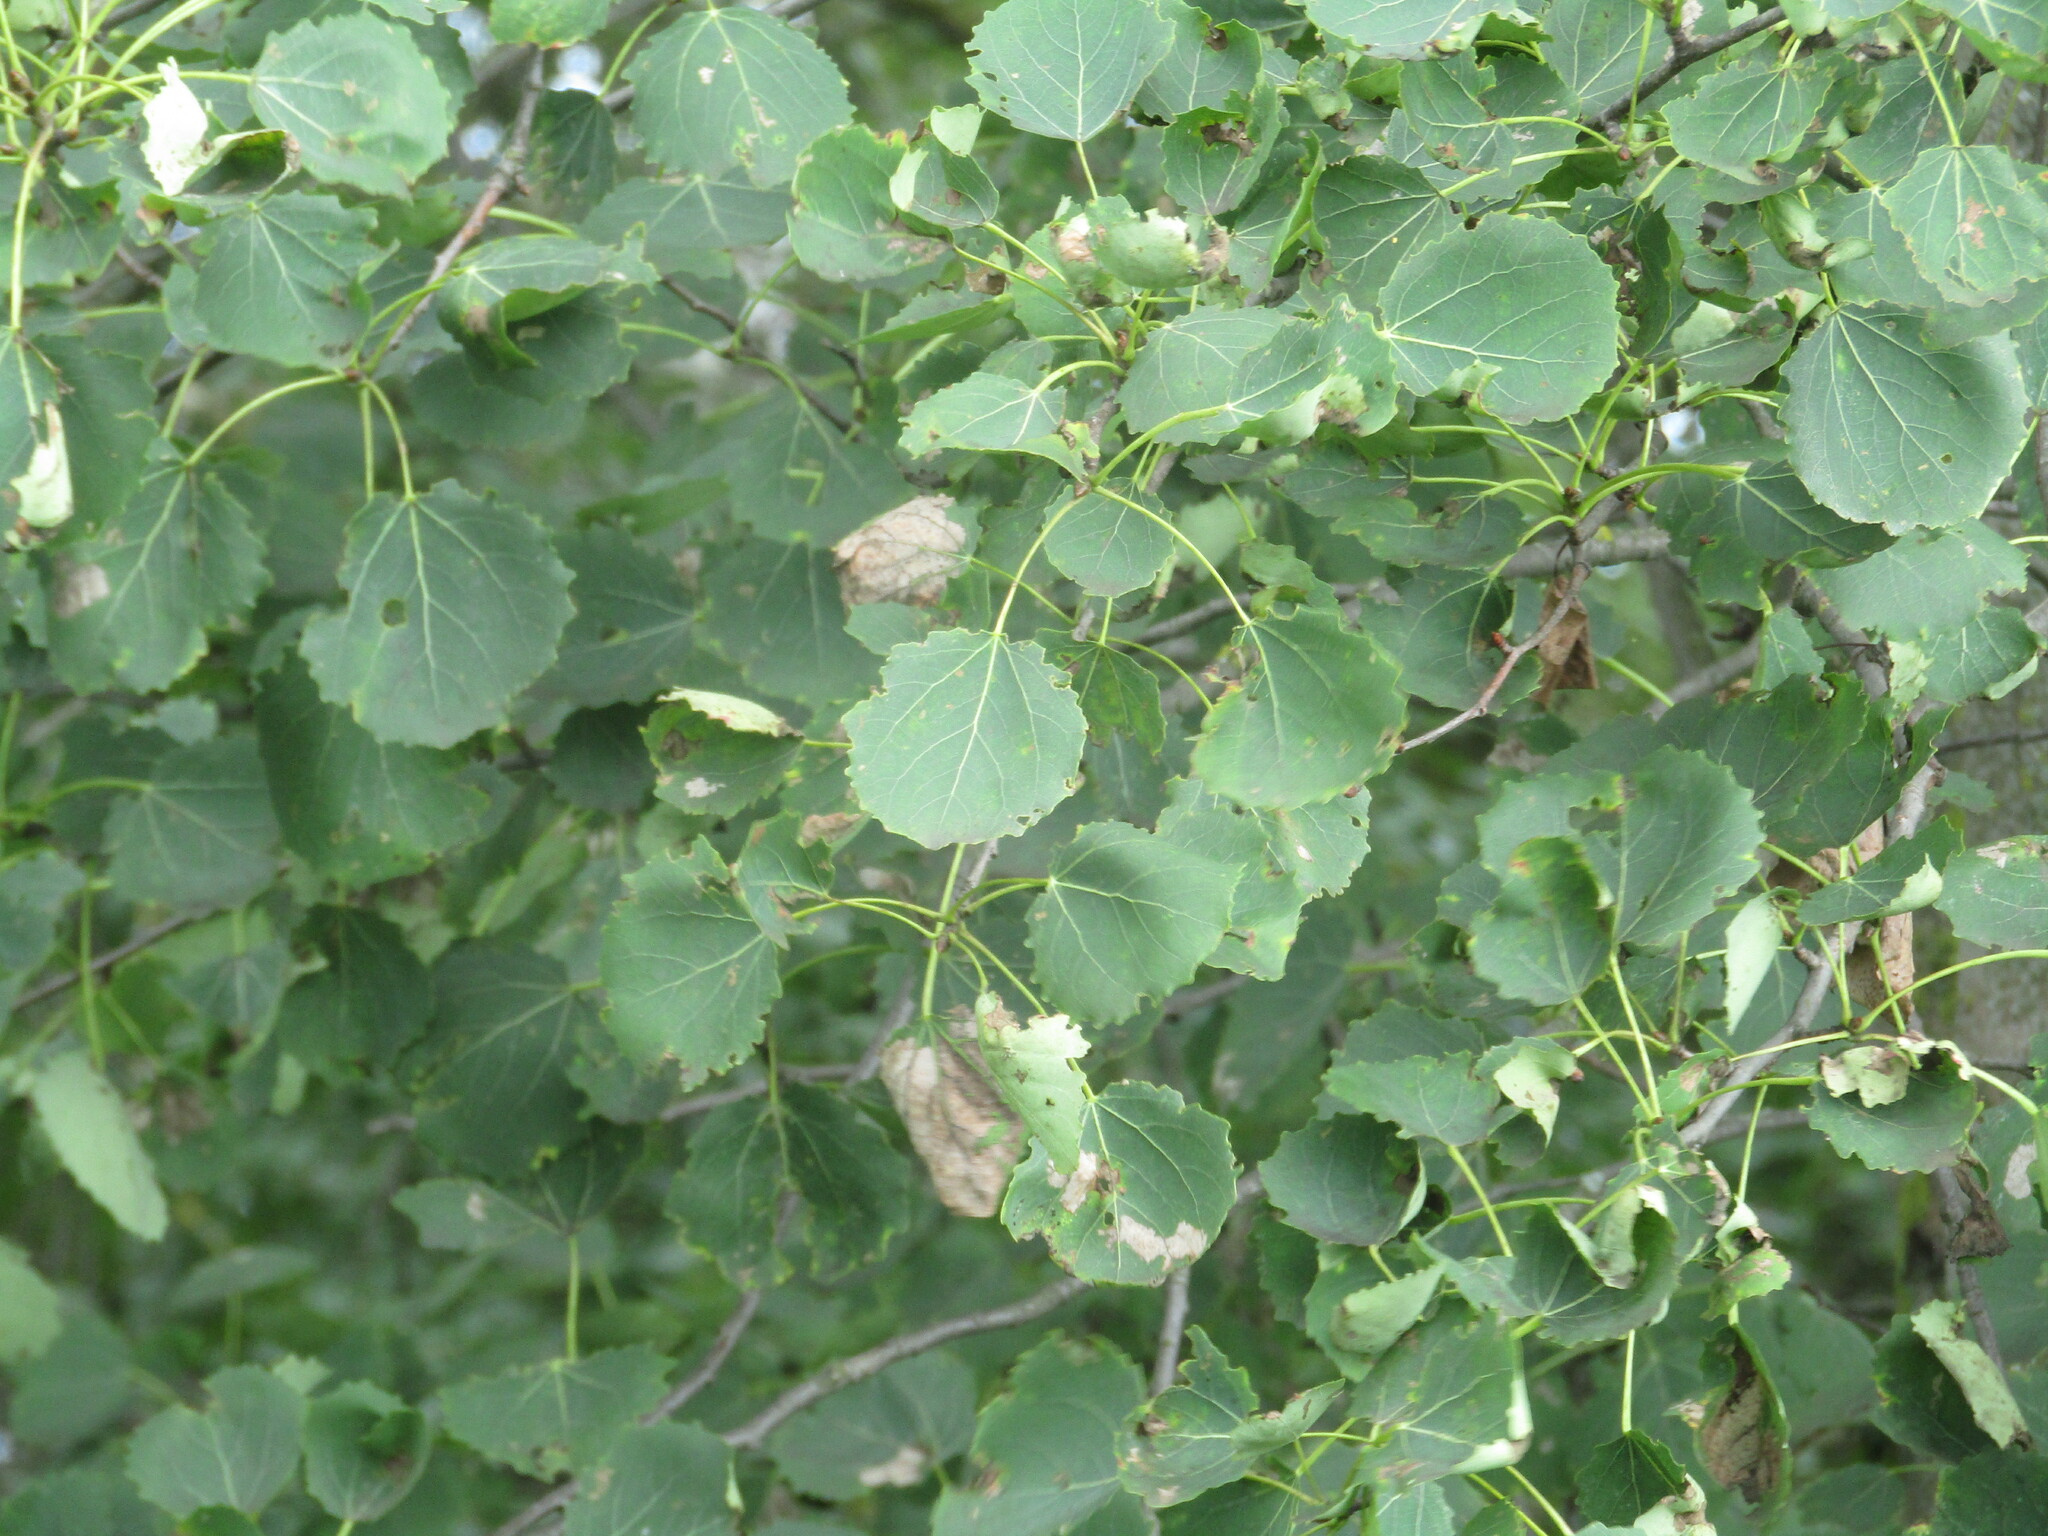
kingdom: Plantae
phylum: Tracheophyta
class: Magnoliopsida
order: Malpighiales
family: Salicaceae
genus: Populus
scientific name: Populus tremula
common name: European aspen
